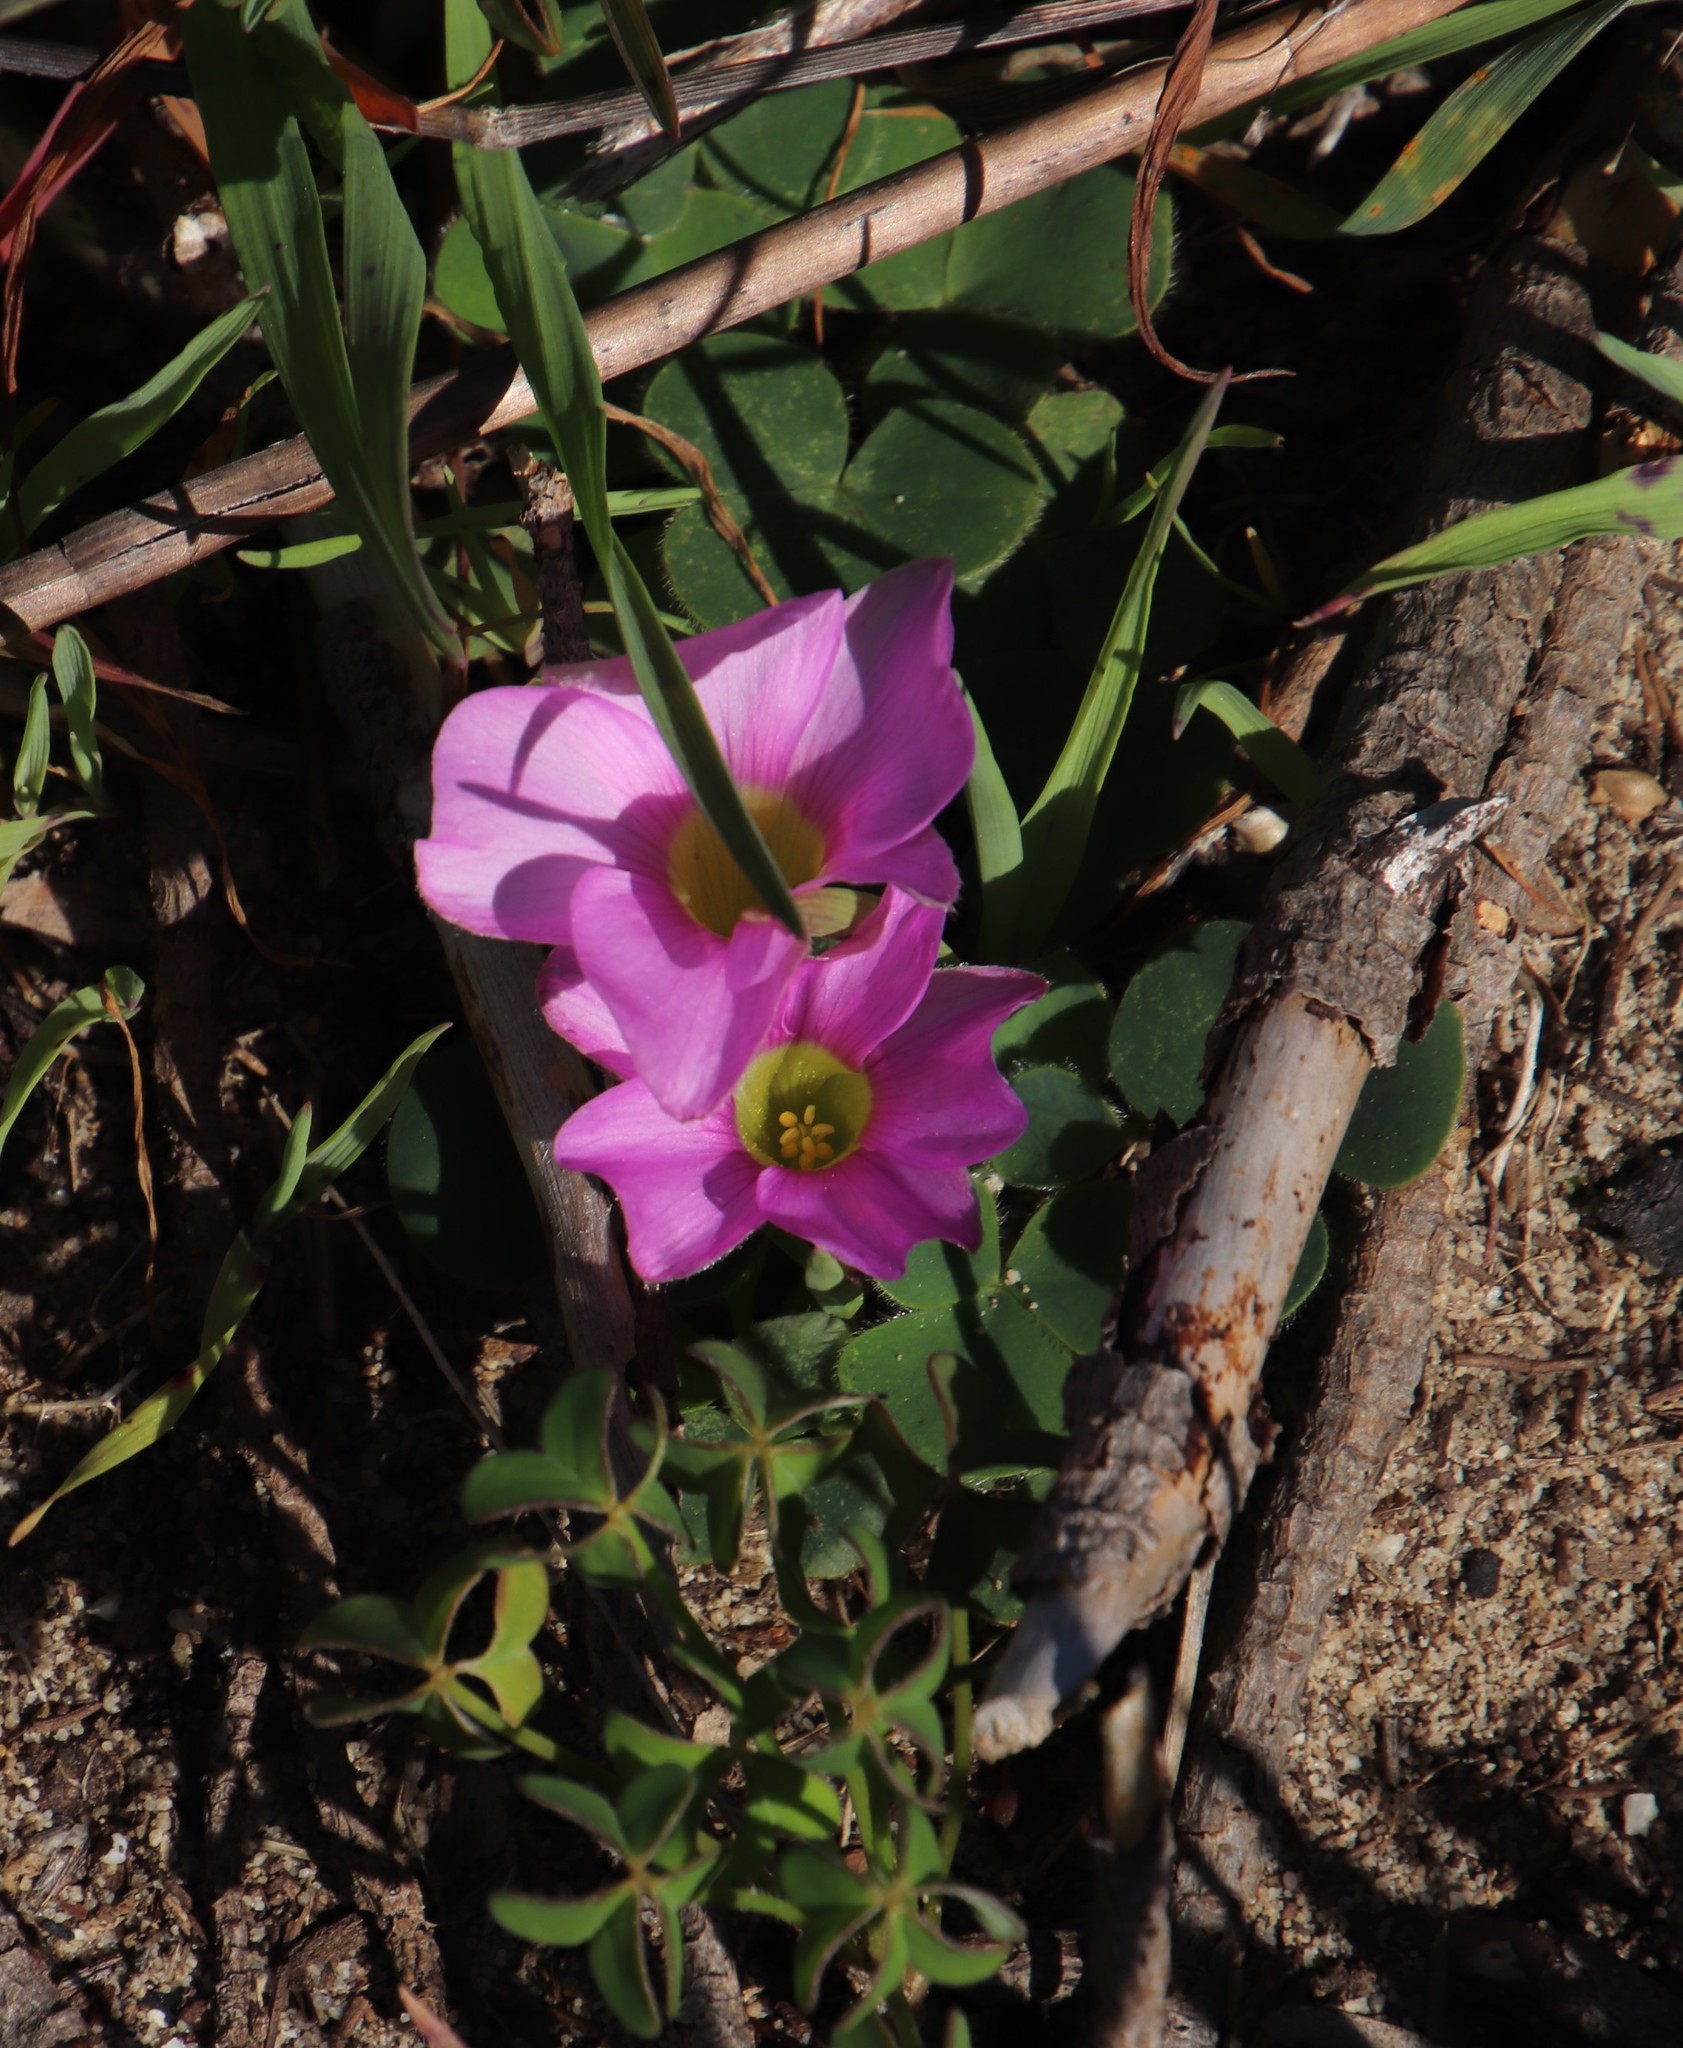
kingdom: Plantae
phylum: Tracheophyta
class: Magnoliopsida
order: Oxalidales
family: Oxalidaceae
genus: Oxalis
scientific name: Oxalis purpurea
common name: Purple woodsorrel
